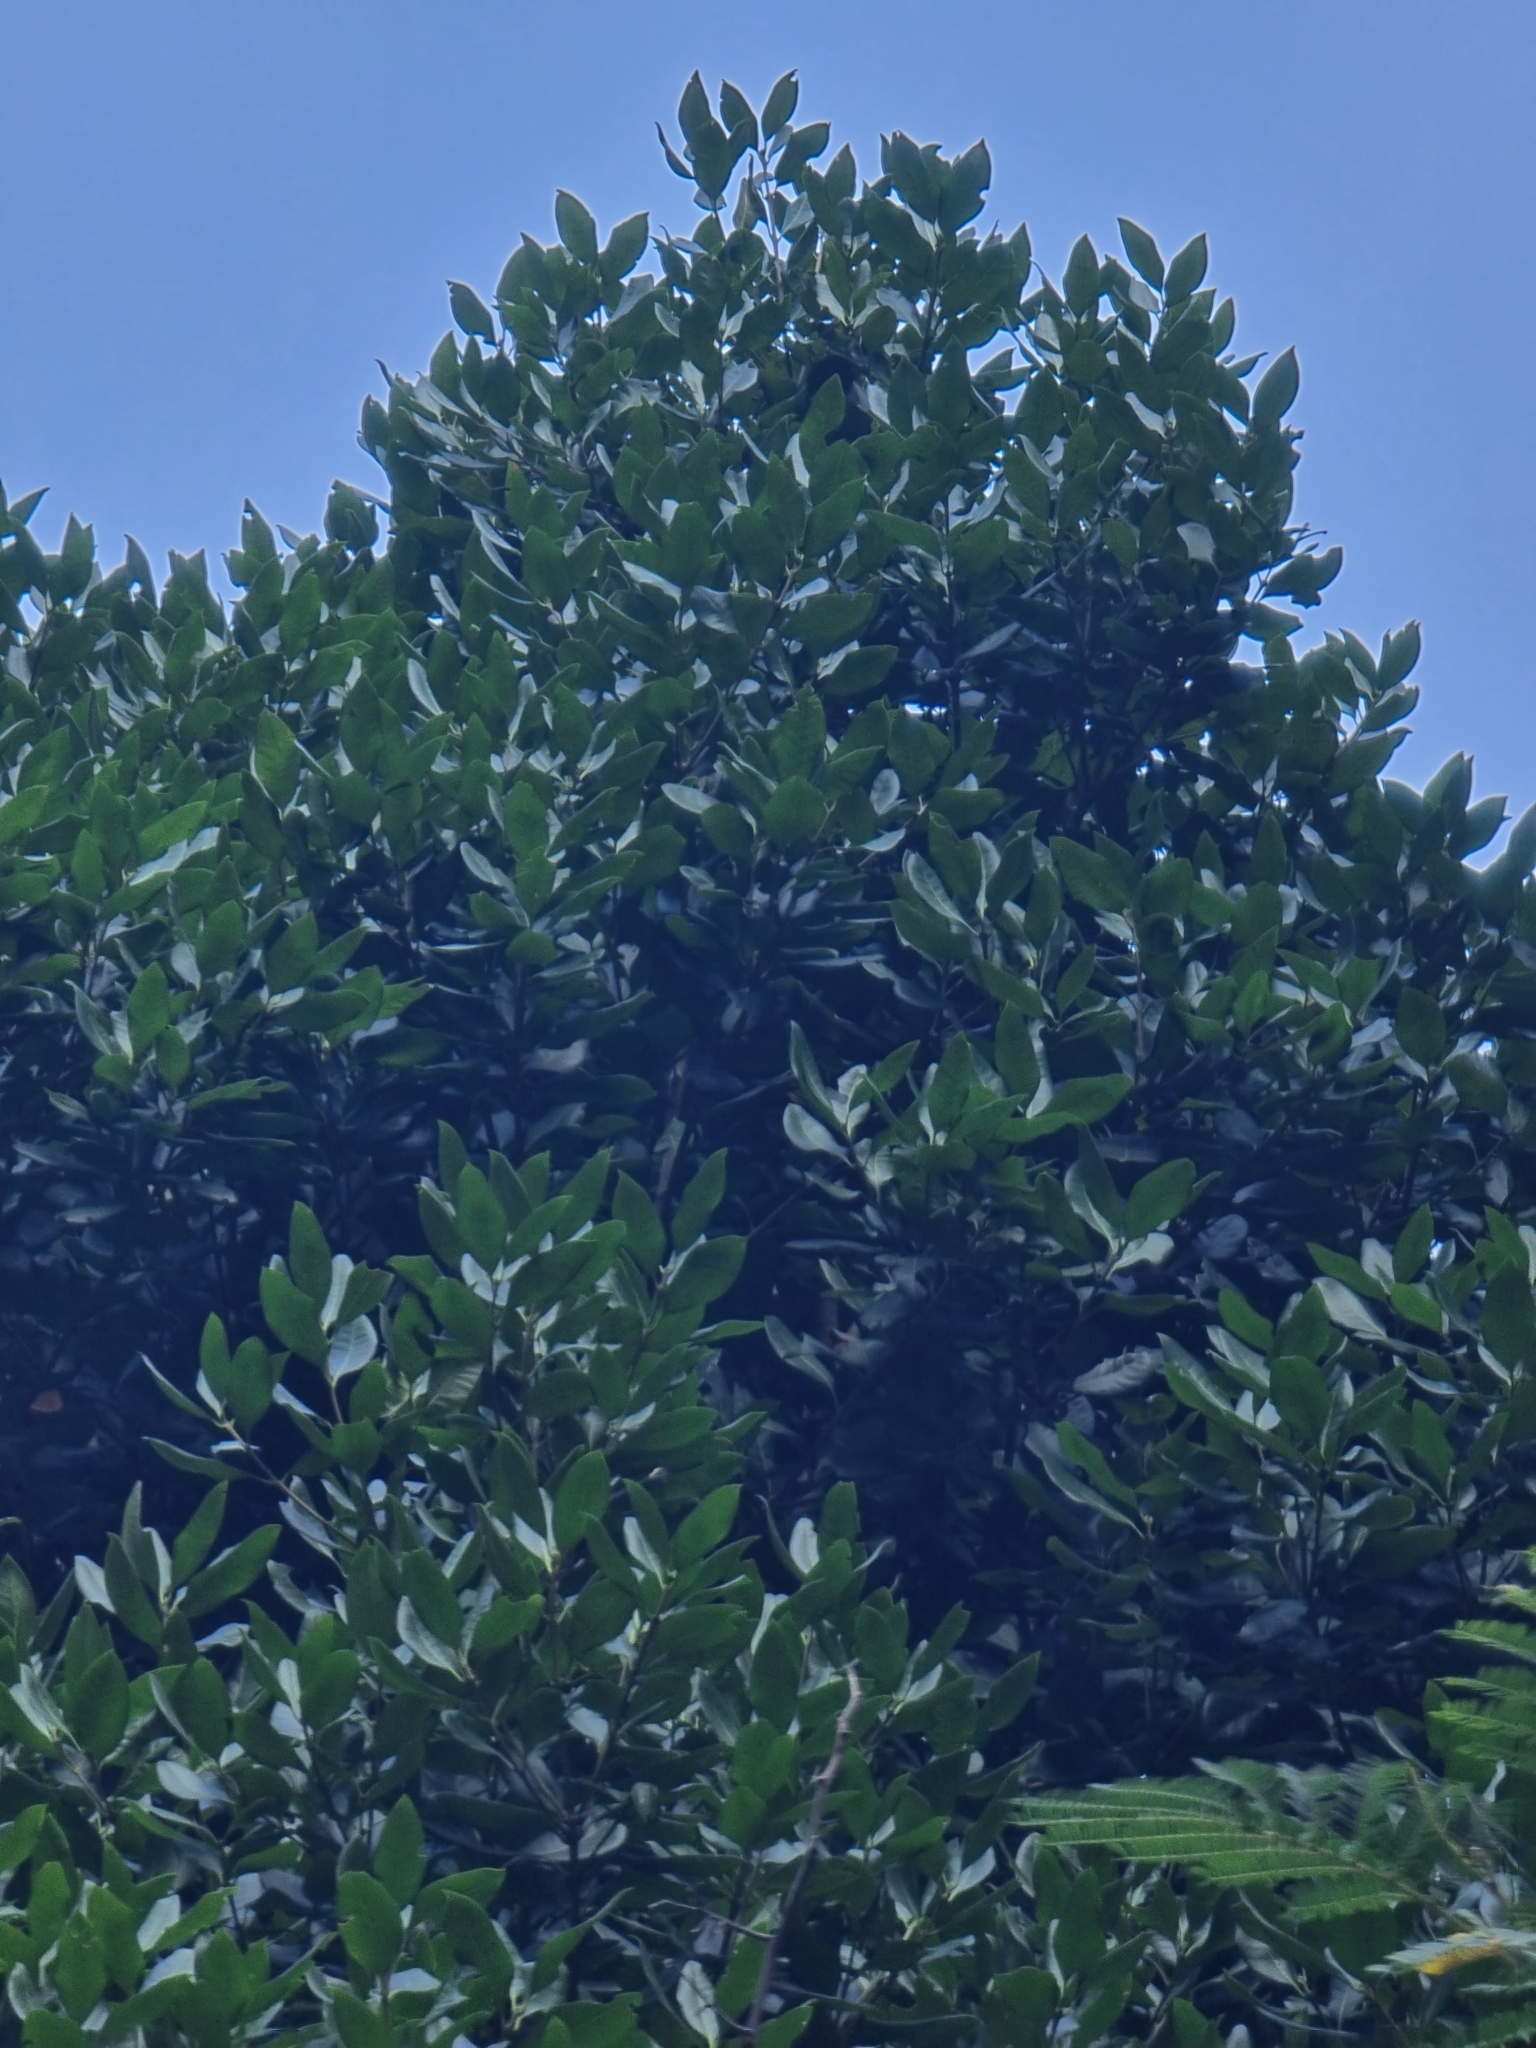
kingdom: Plantae
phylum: Tracheophyta
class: Magnoliopsida
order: Lamiales
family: Oleaceae
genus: Picconia
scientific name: Picconia excelsa
